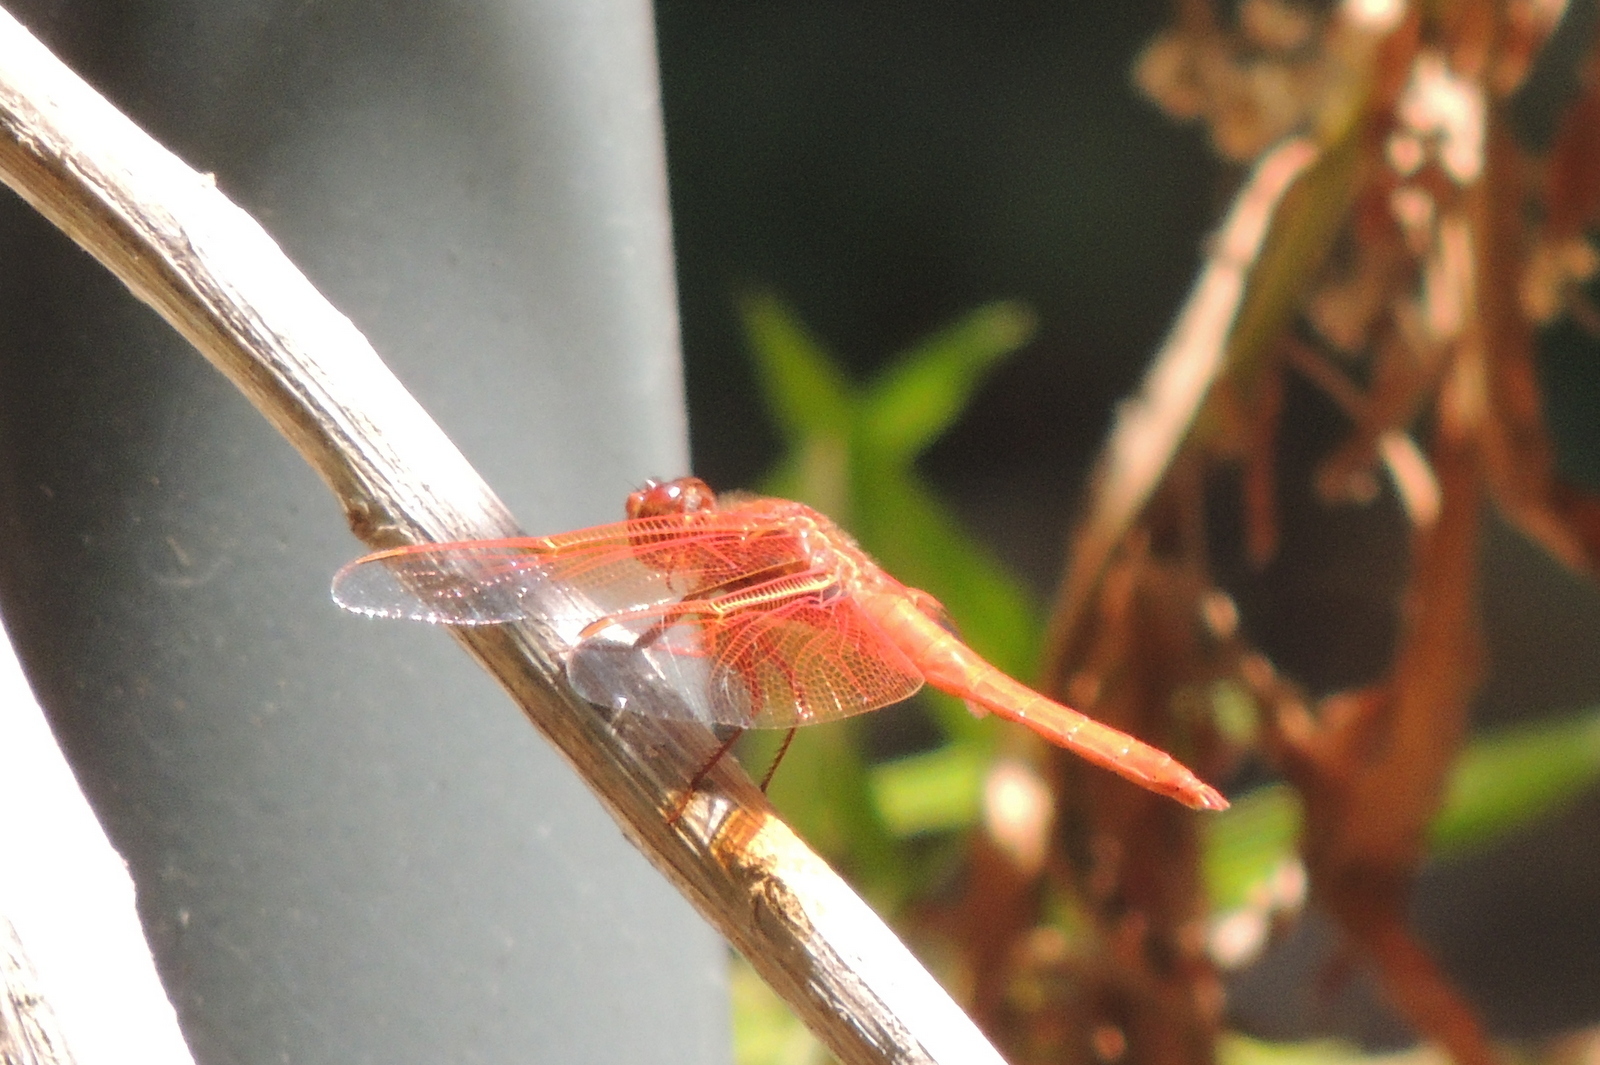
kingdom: Animalia
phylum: Arthropoda
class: Insecta
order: Odonata
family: Libellulidae
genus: Libellula
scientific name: Libellula saturata
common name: Flame skimmer
